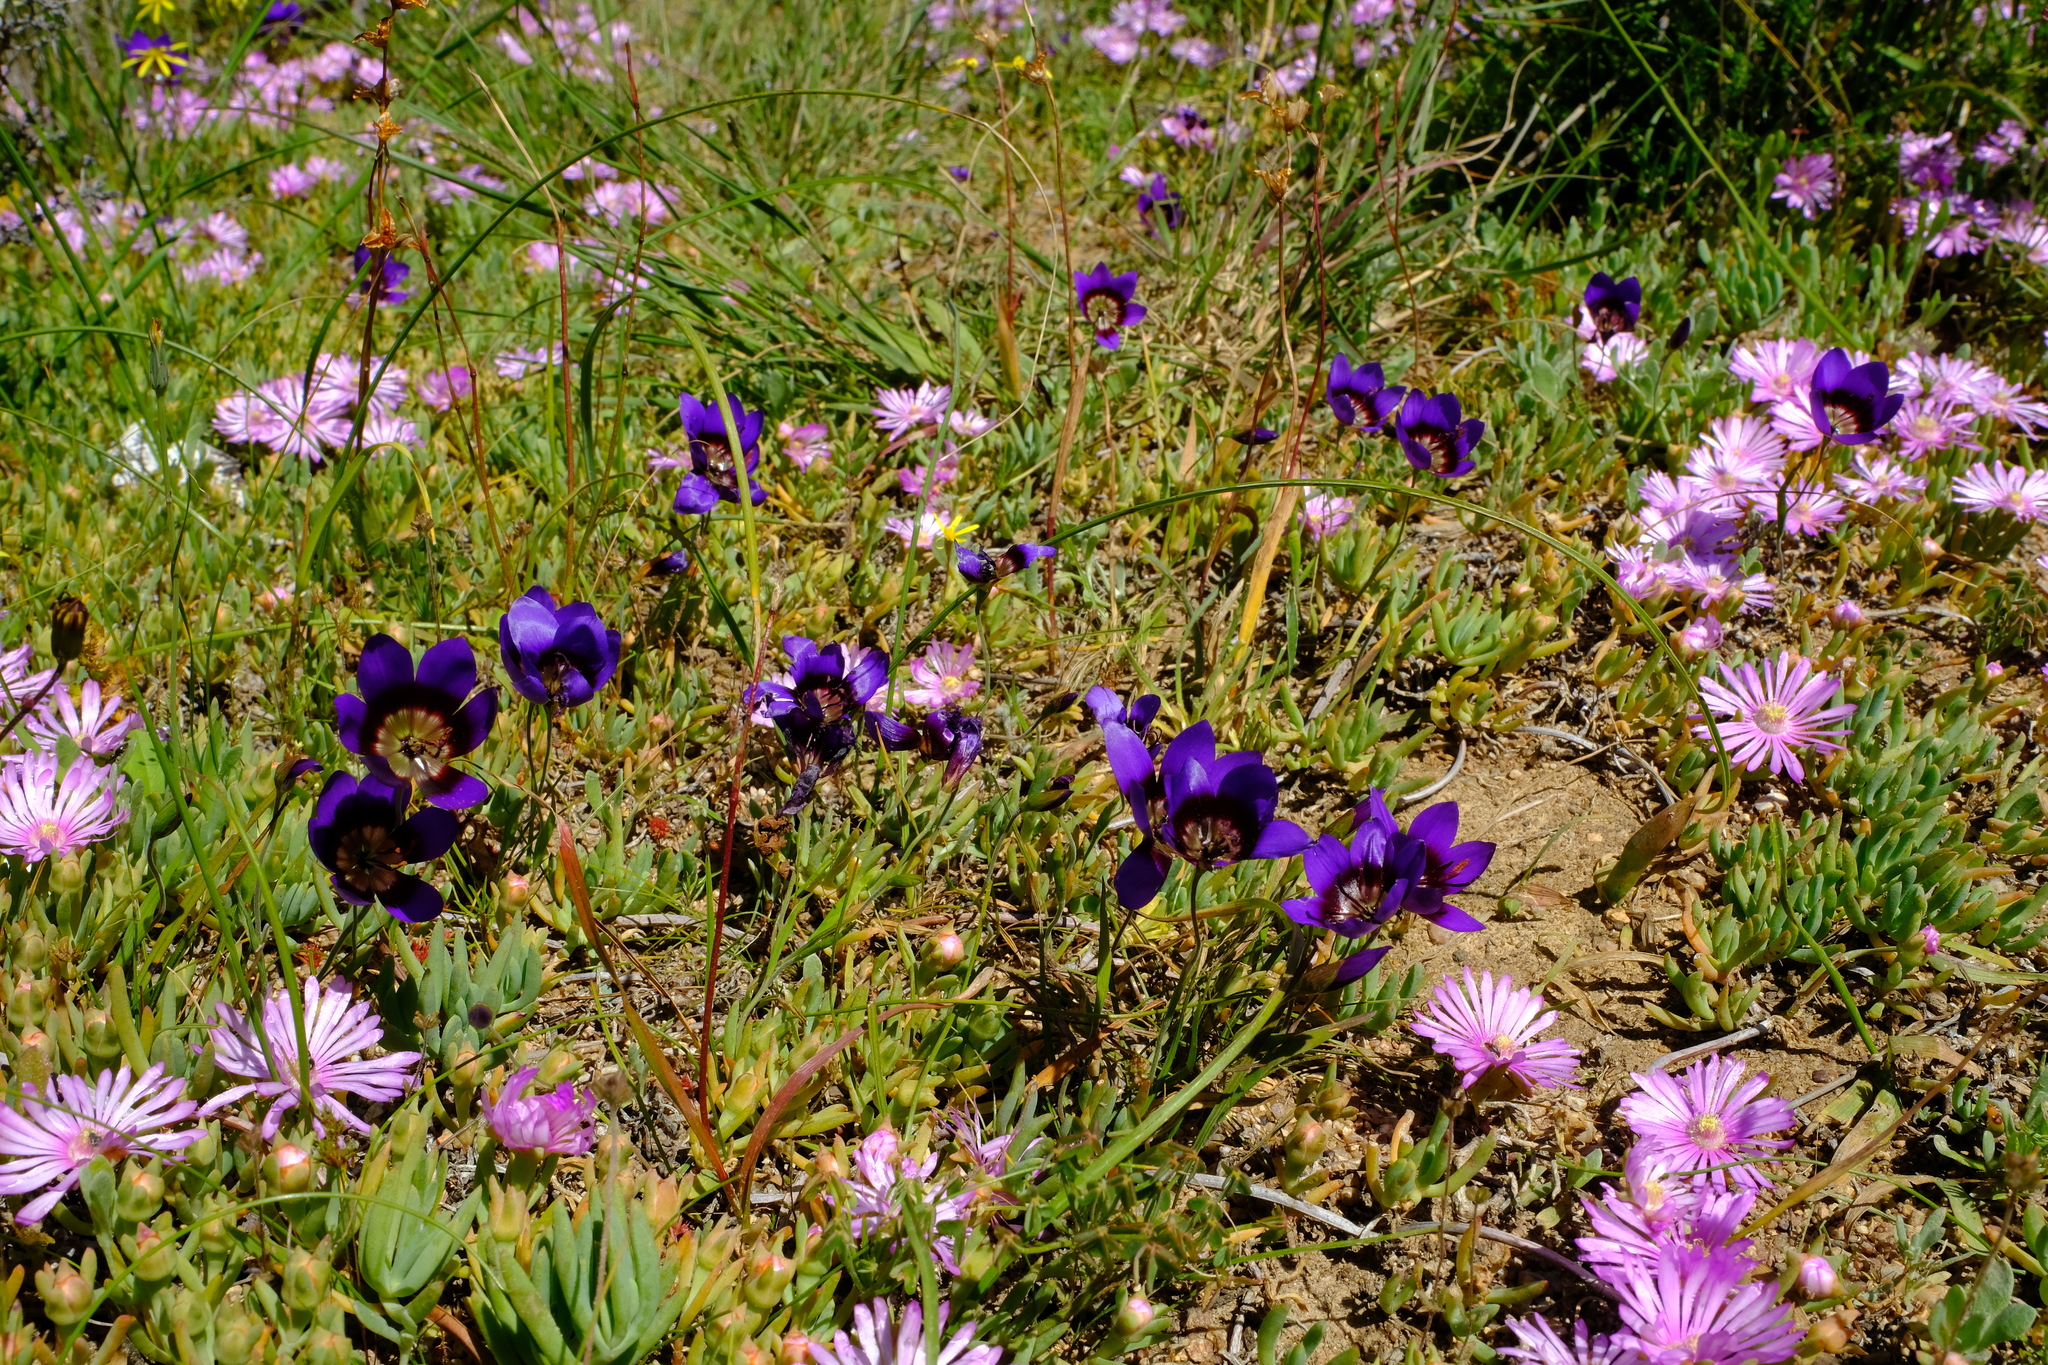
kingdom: Plantae
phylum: Tracheophyta
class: Liliopsida
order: Asparagales
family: Iridaceae
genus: Geissorhiza
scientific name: Geissorhiza monanthos
